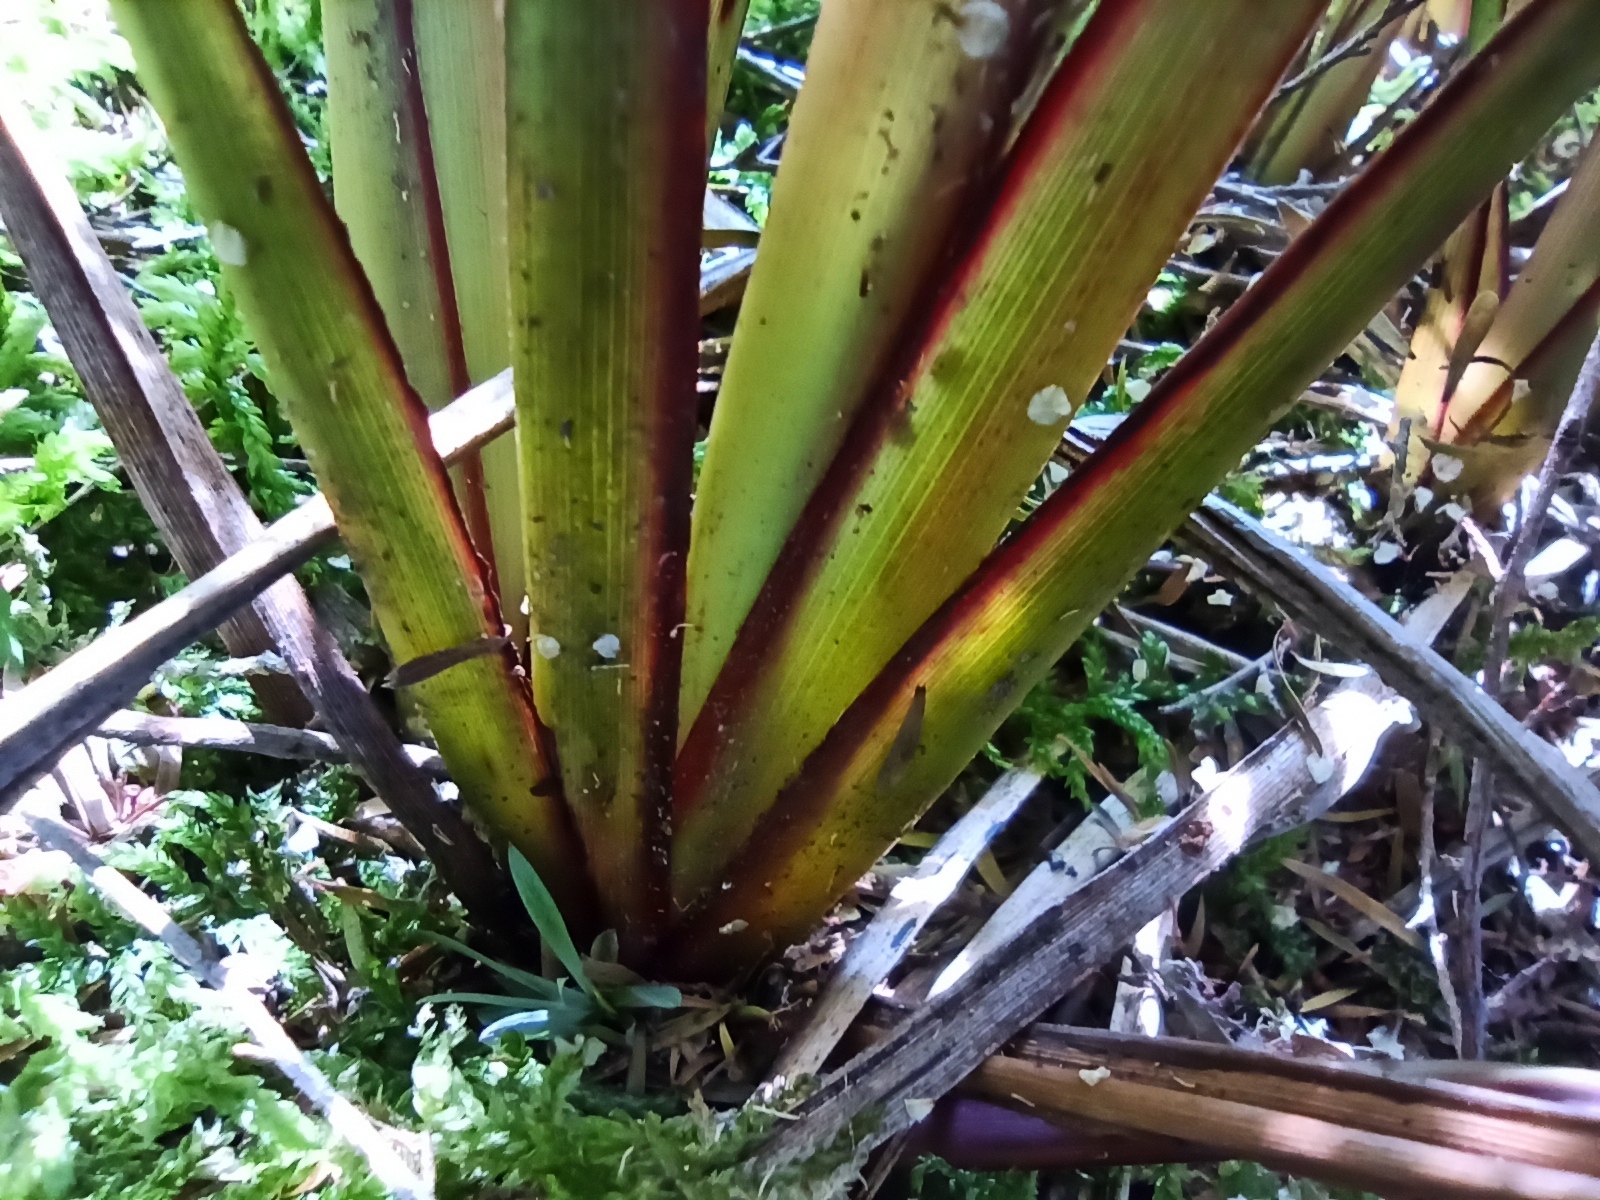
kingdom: Plantae
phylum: Tracheophyta
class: Liliopsida
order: Asparagales
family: Asphodelaceae
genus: Dianella
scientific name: Dianella nigra
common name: New zealand-blueberry
